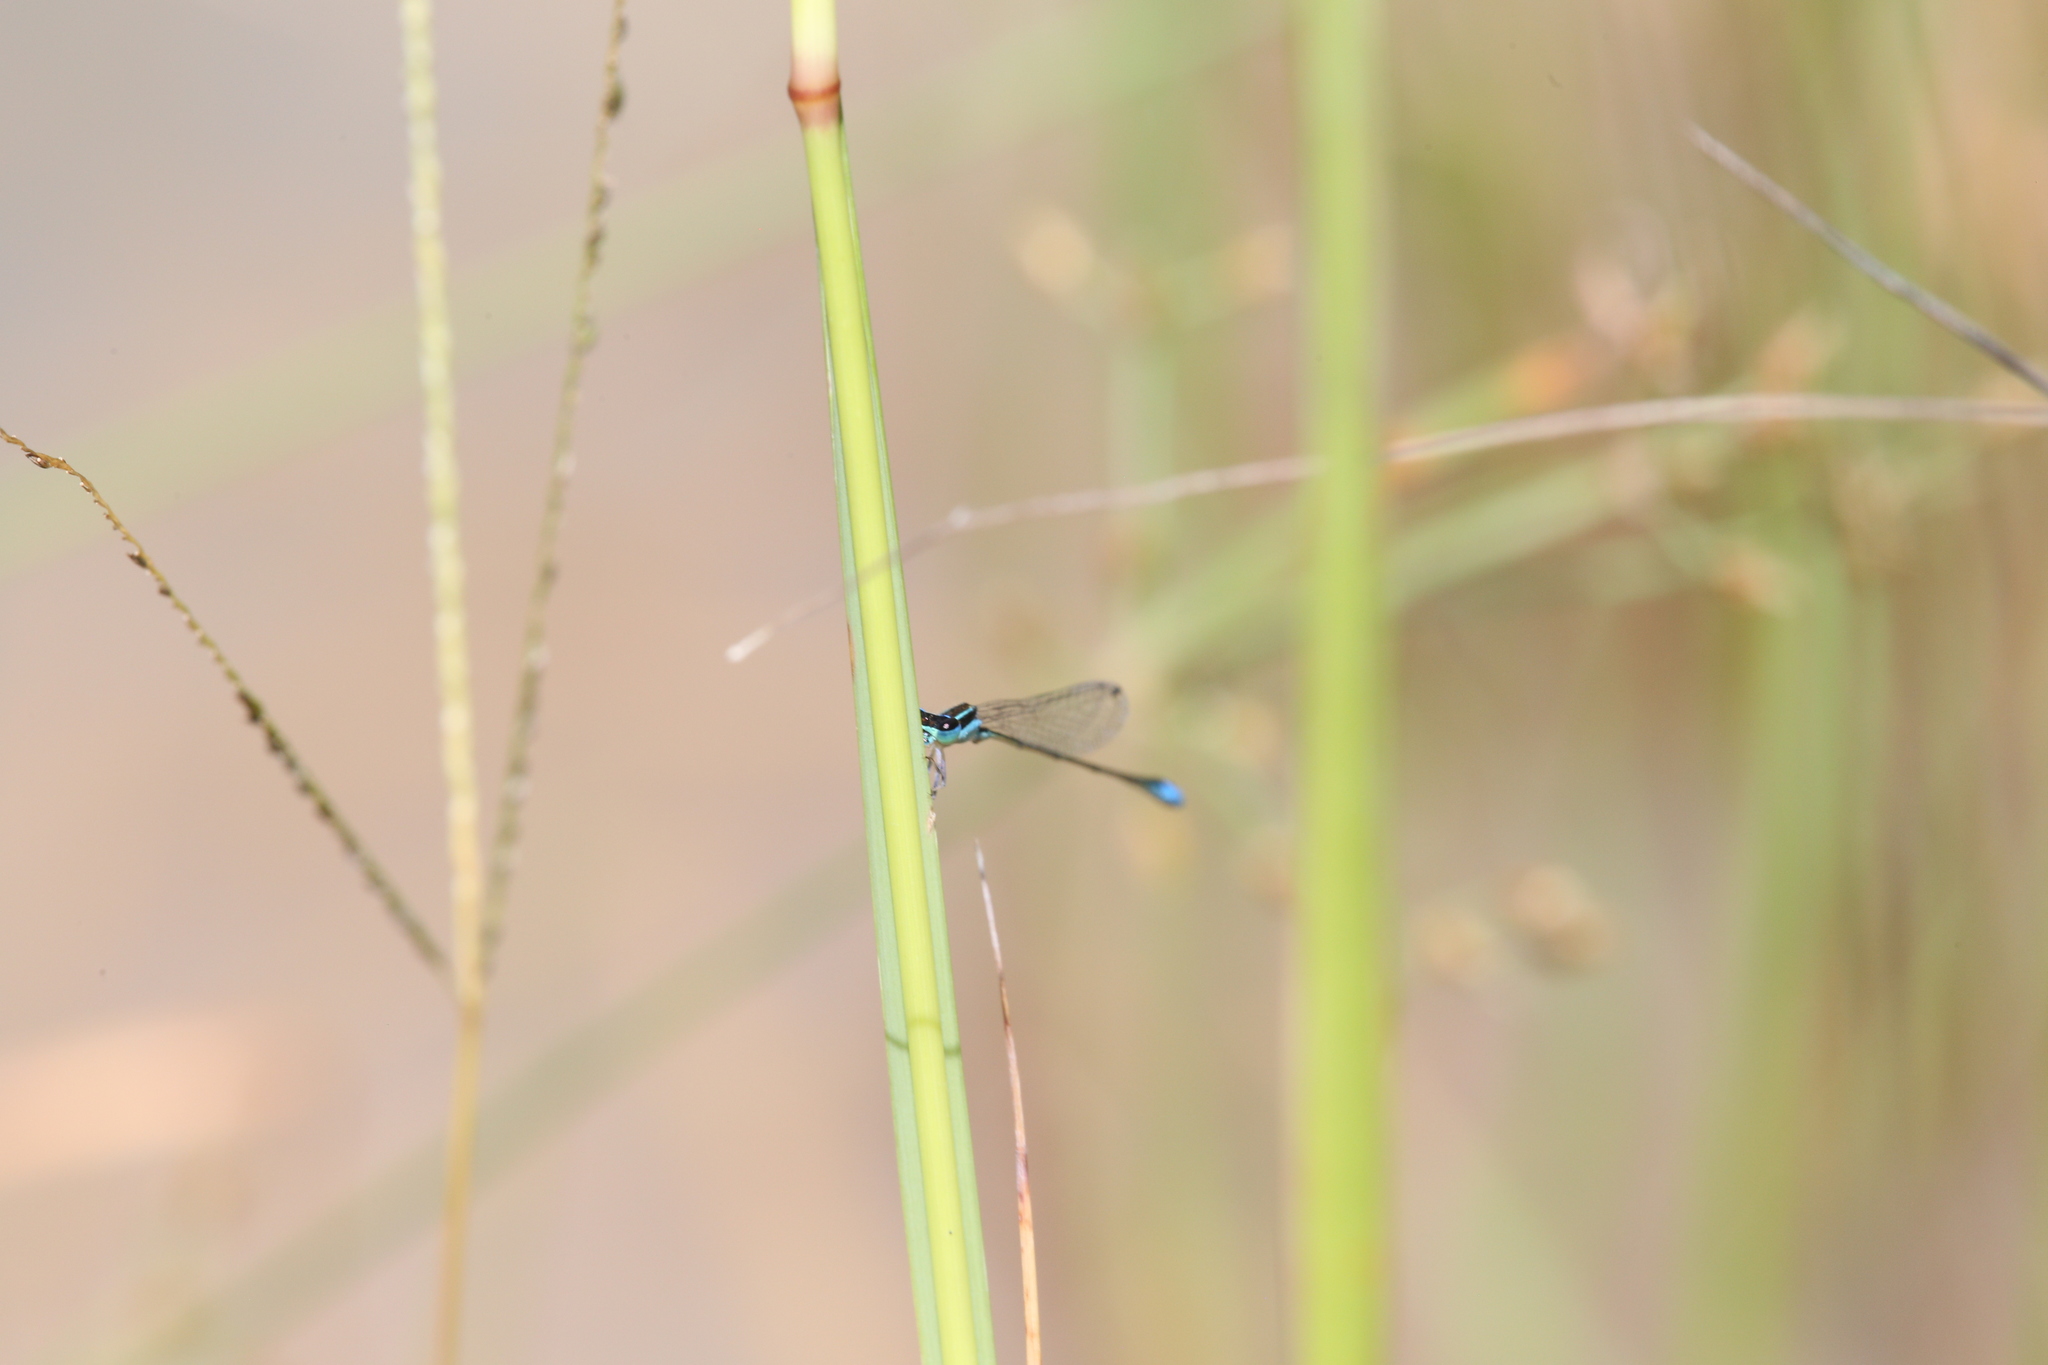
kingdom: Animalia
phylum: Arthropoda
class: Insecta
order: Odonata
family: Coenagrionidae
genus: Ischnura
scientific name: Ischnura heterosticta
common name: Common bluetail
